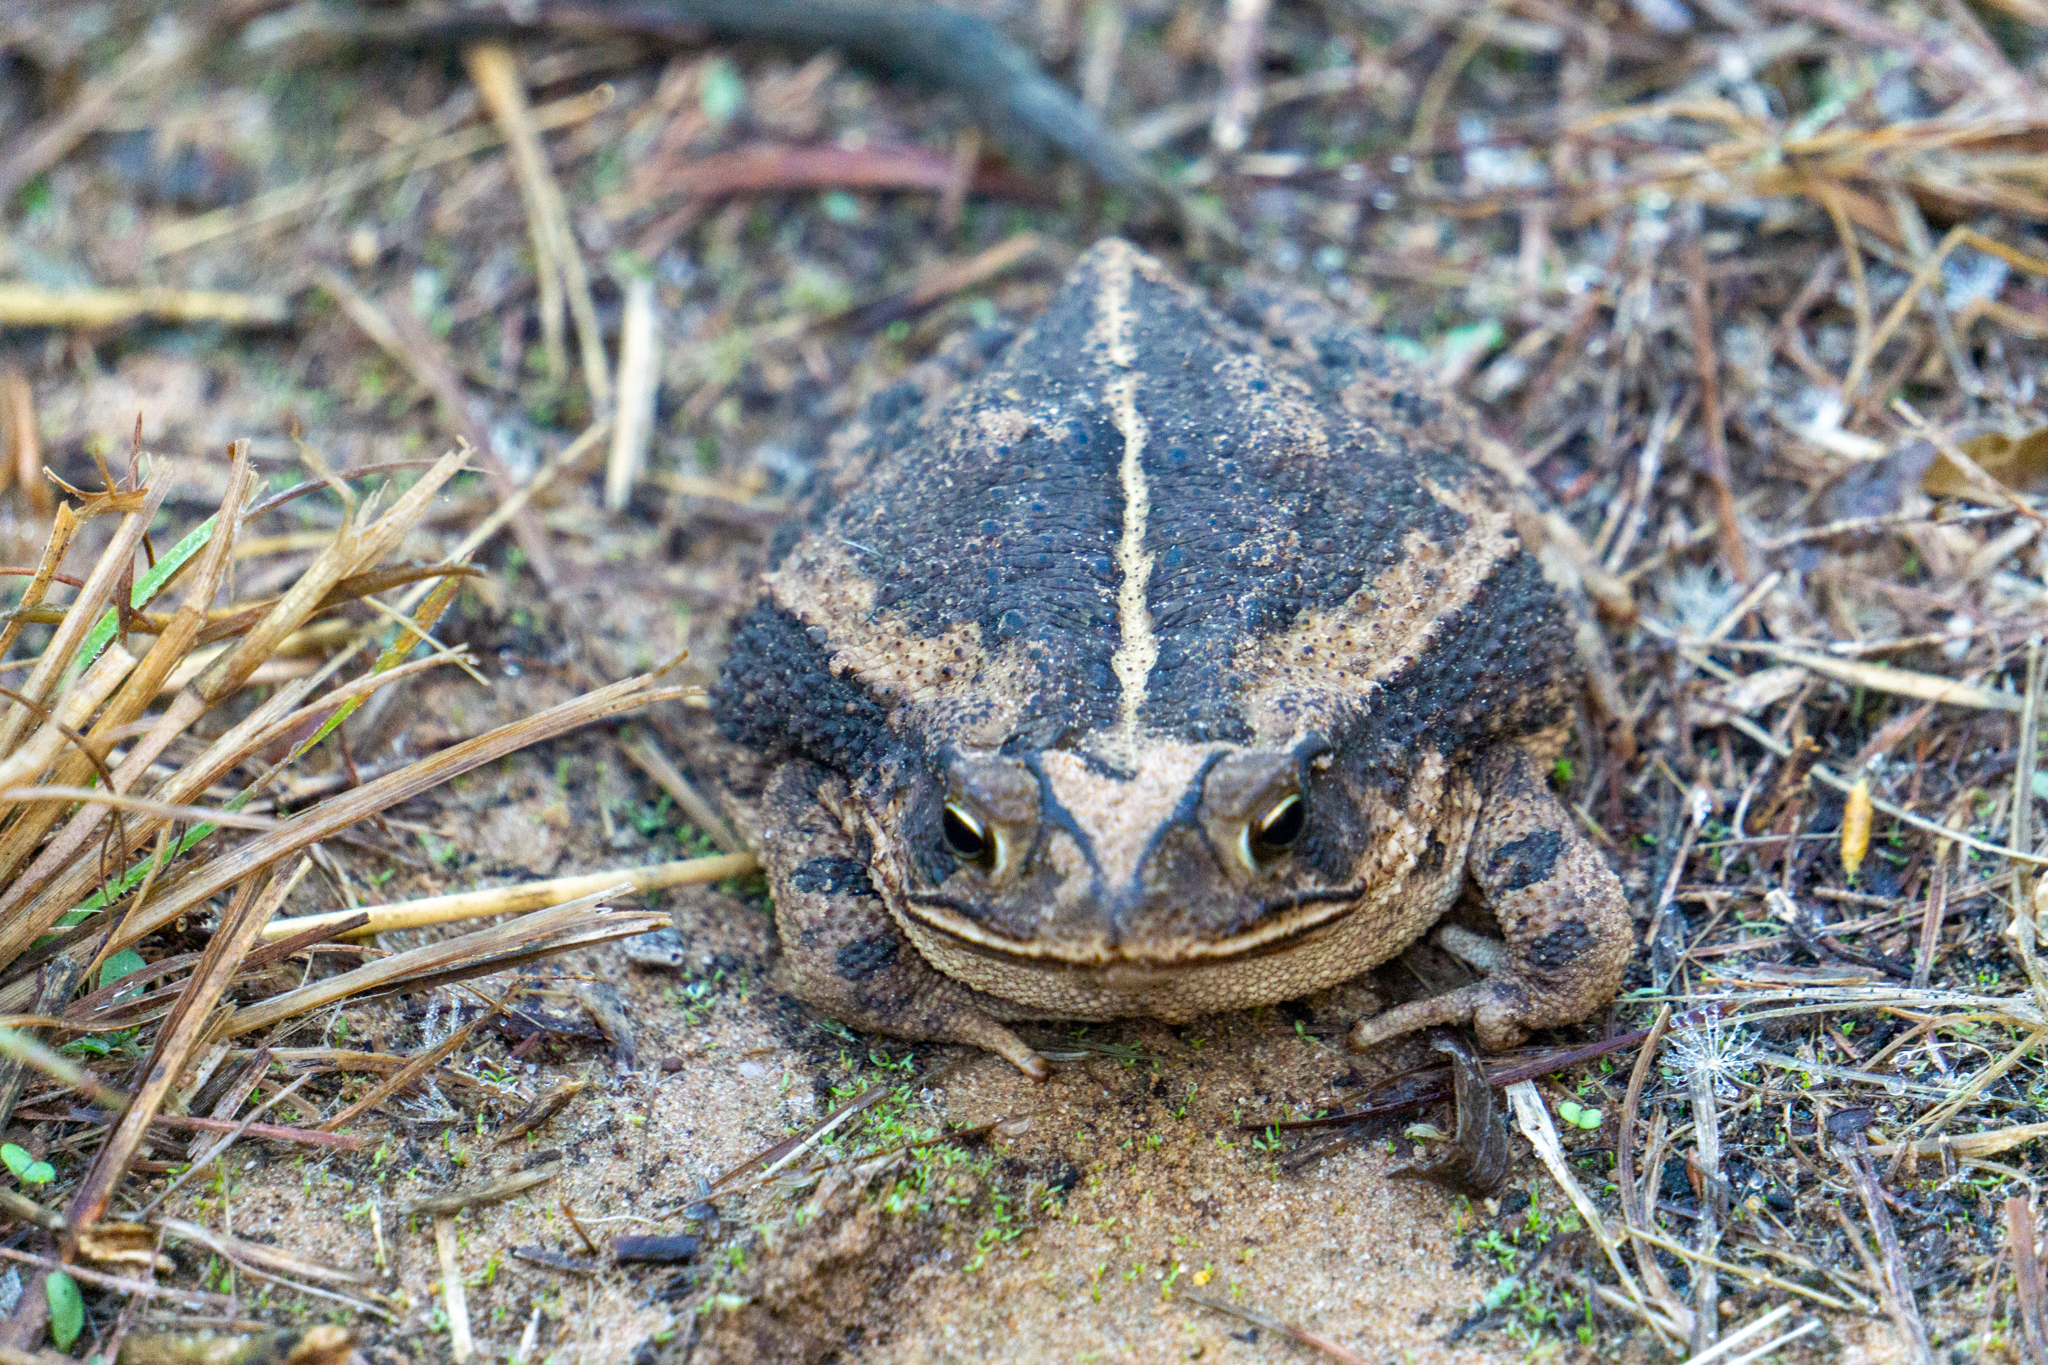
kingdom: Animalia
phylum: Chordata
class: Amphibia
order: Anura
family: Bufonidae
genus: Incilius
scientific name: Incilius nebulifer
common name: Gulf coast toad
